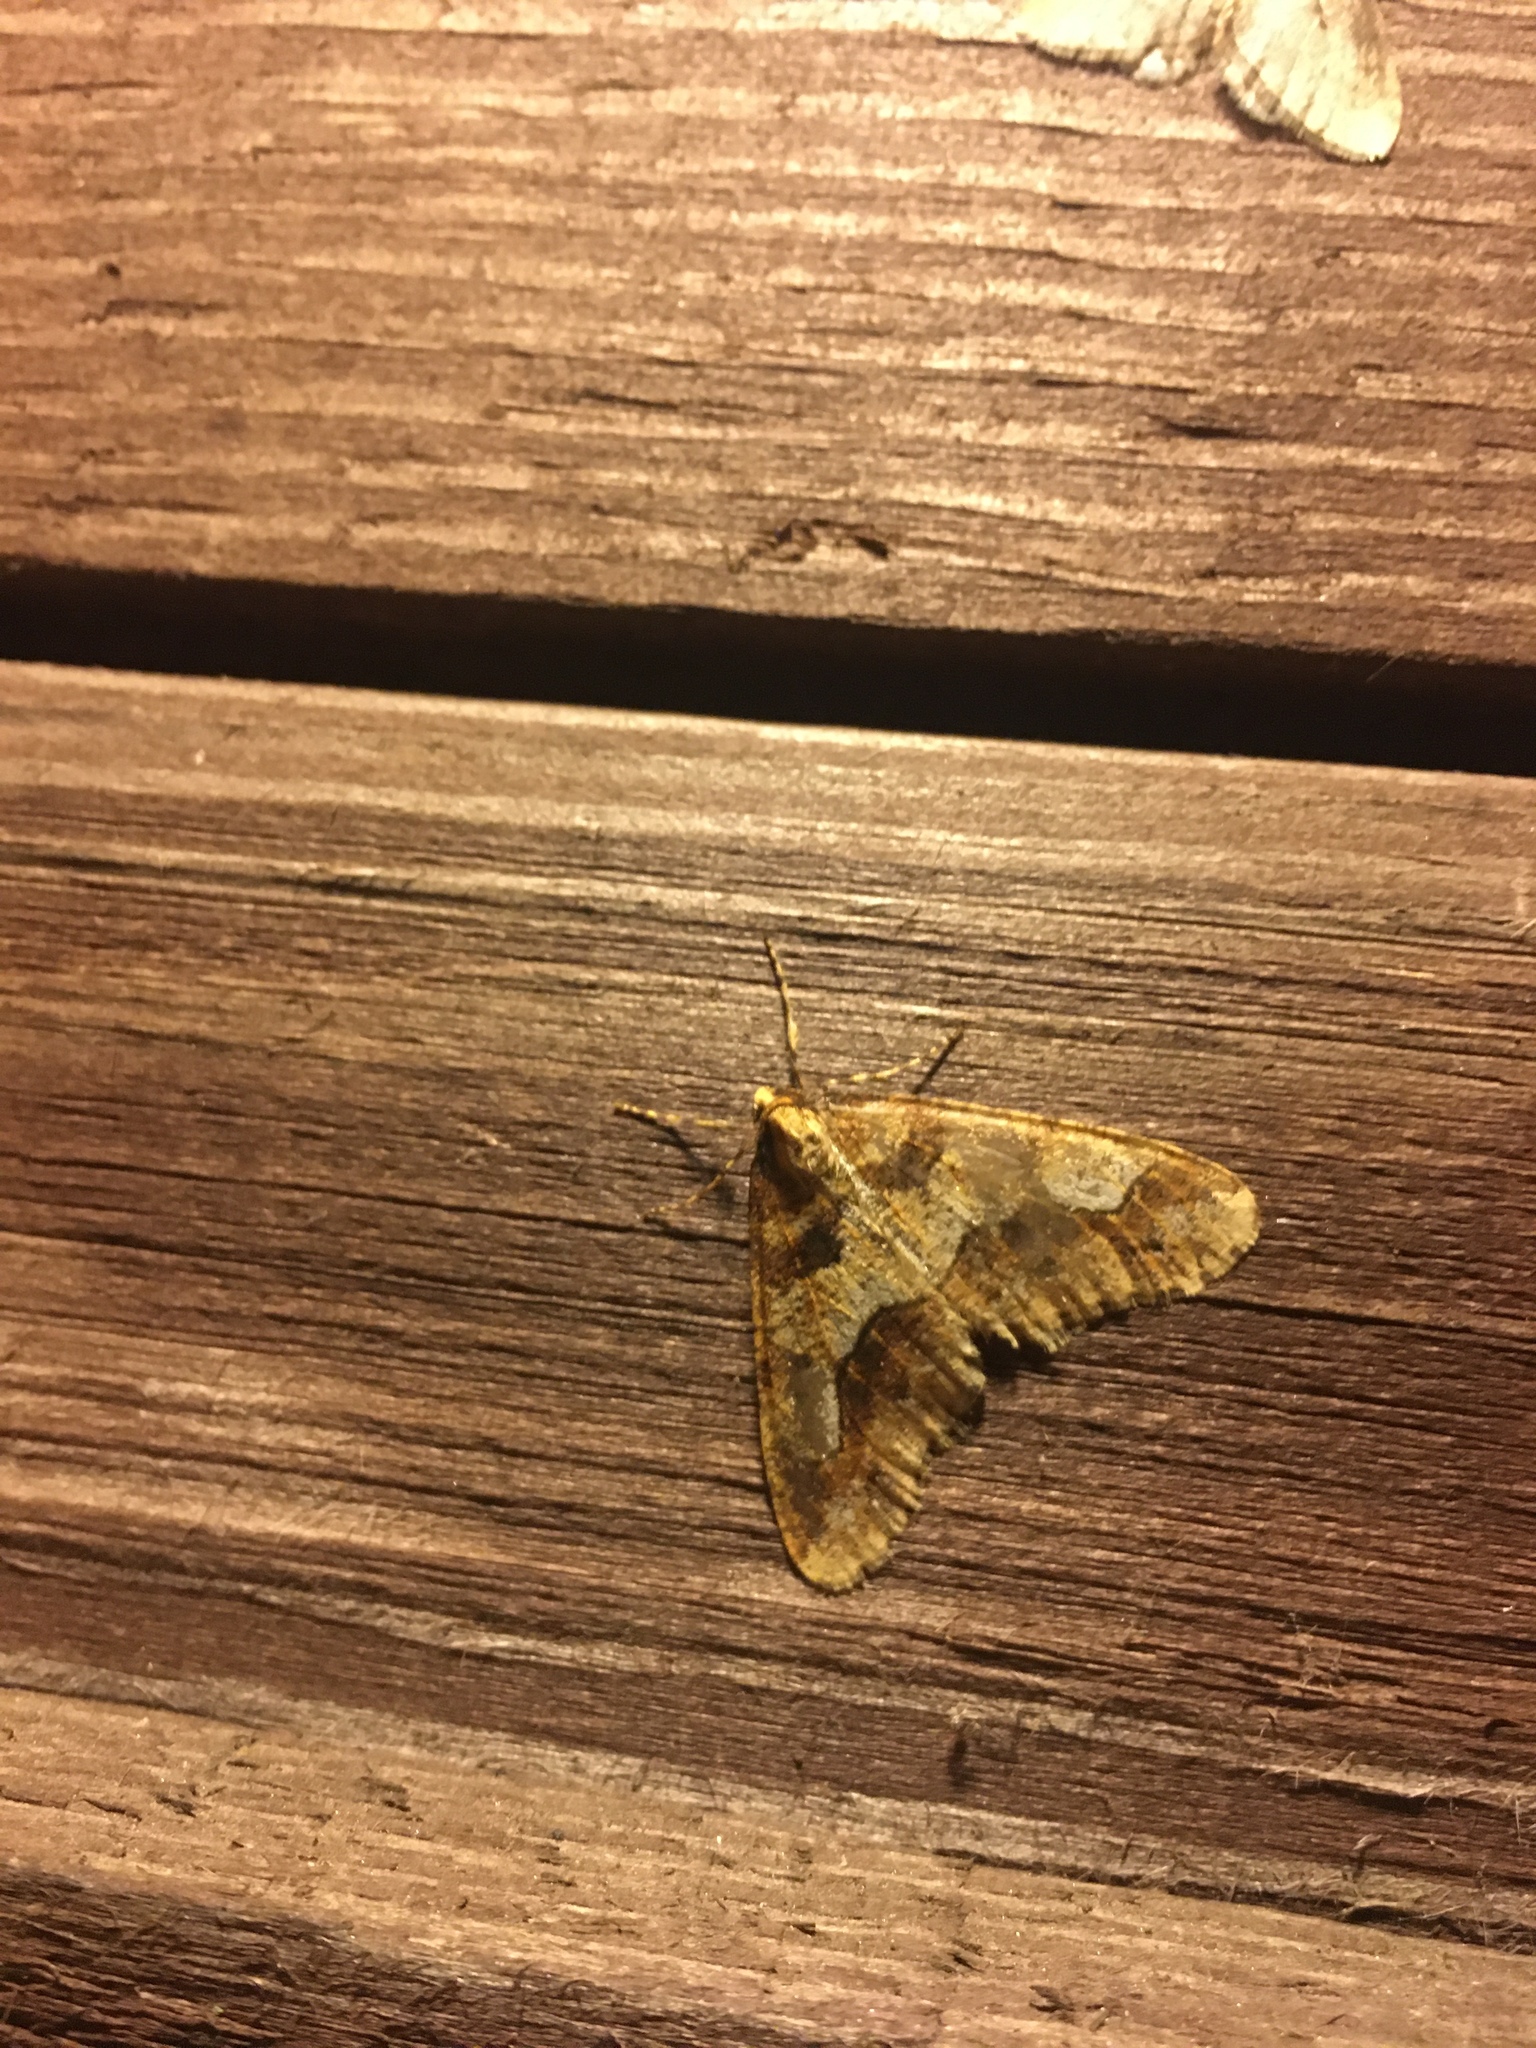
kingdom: Animalia
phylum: Arthropoda
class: Insecta
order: Lepidoptera
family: Geometridae
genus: Erannis
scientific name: Erannis defoliaria
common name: Mottled umber
